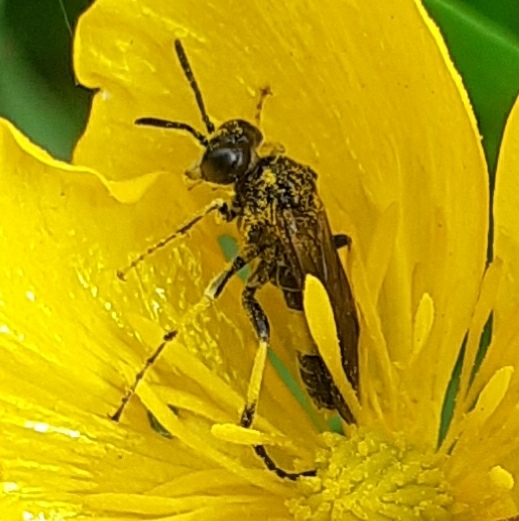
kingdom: Animalia
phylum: Arthropoda
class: Insecta
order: Hymenoptera
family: Tenthredinidae
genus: Paratenthredo
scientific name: Paratenthredo frauenfeldii
